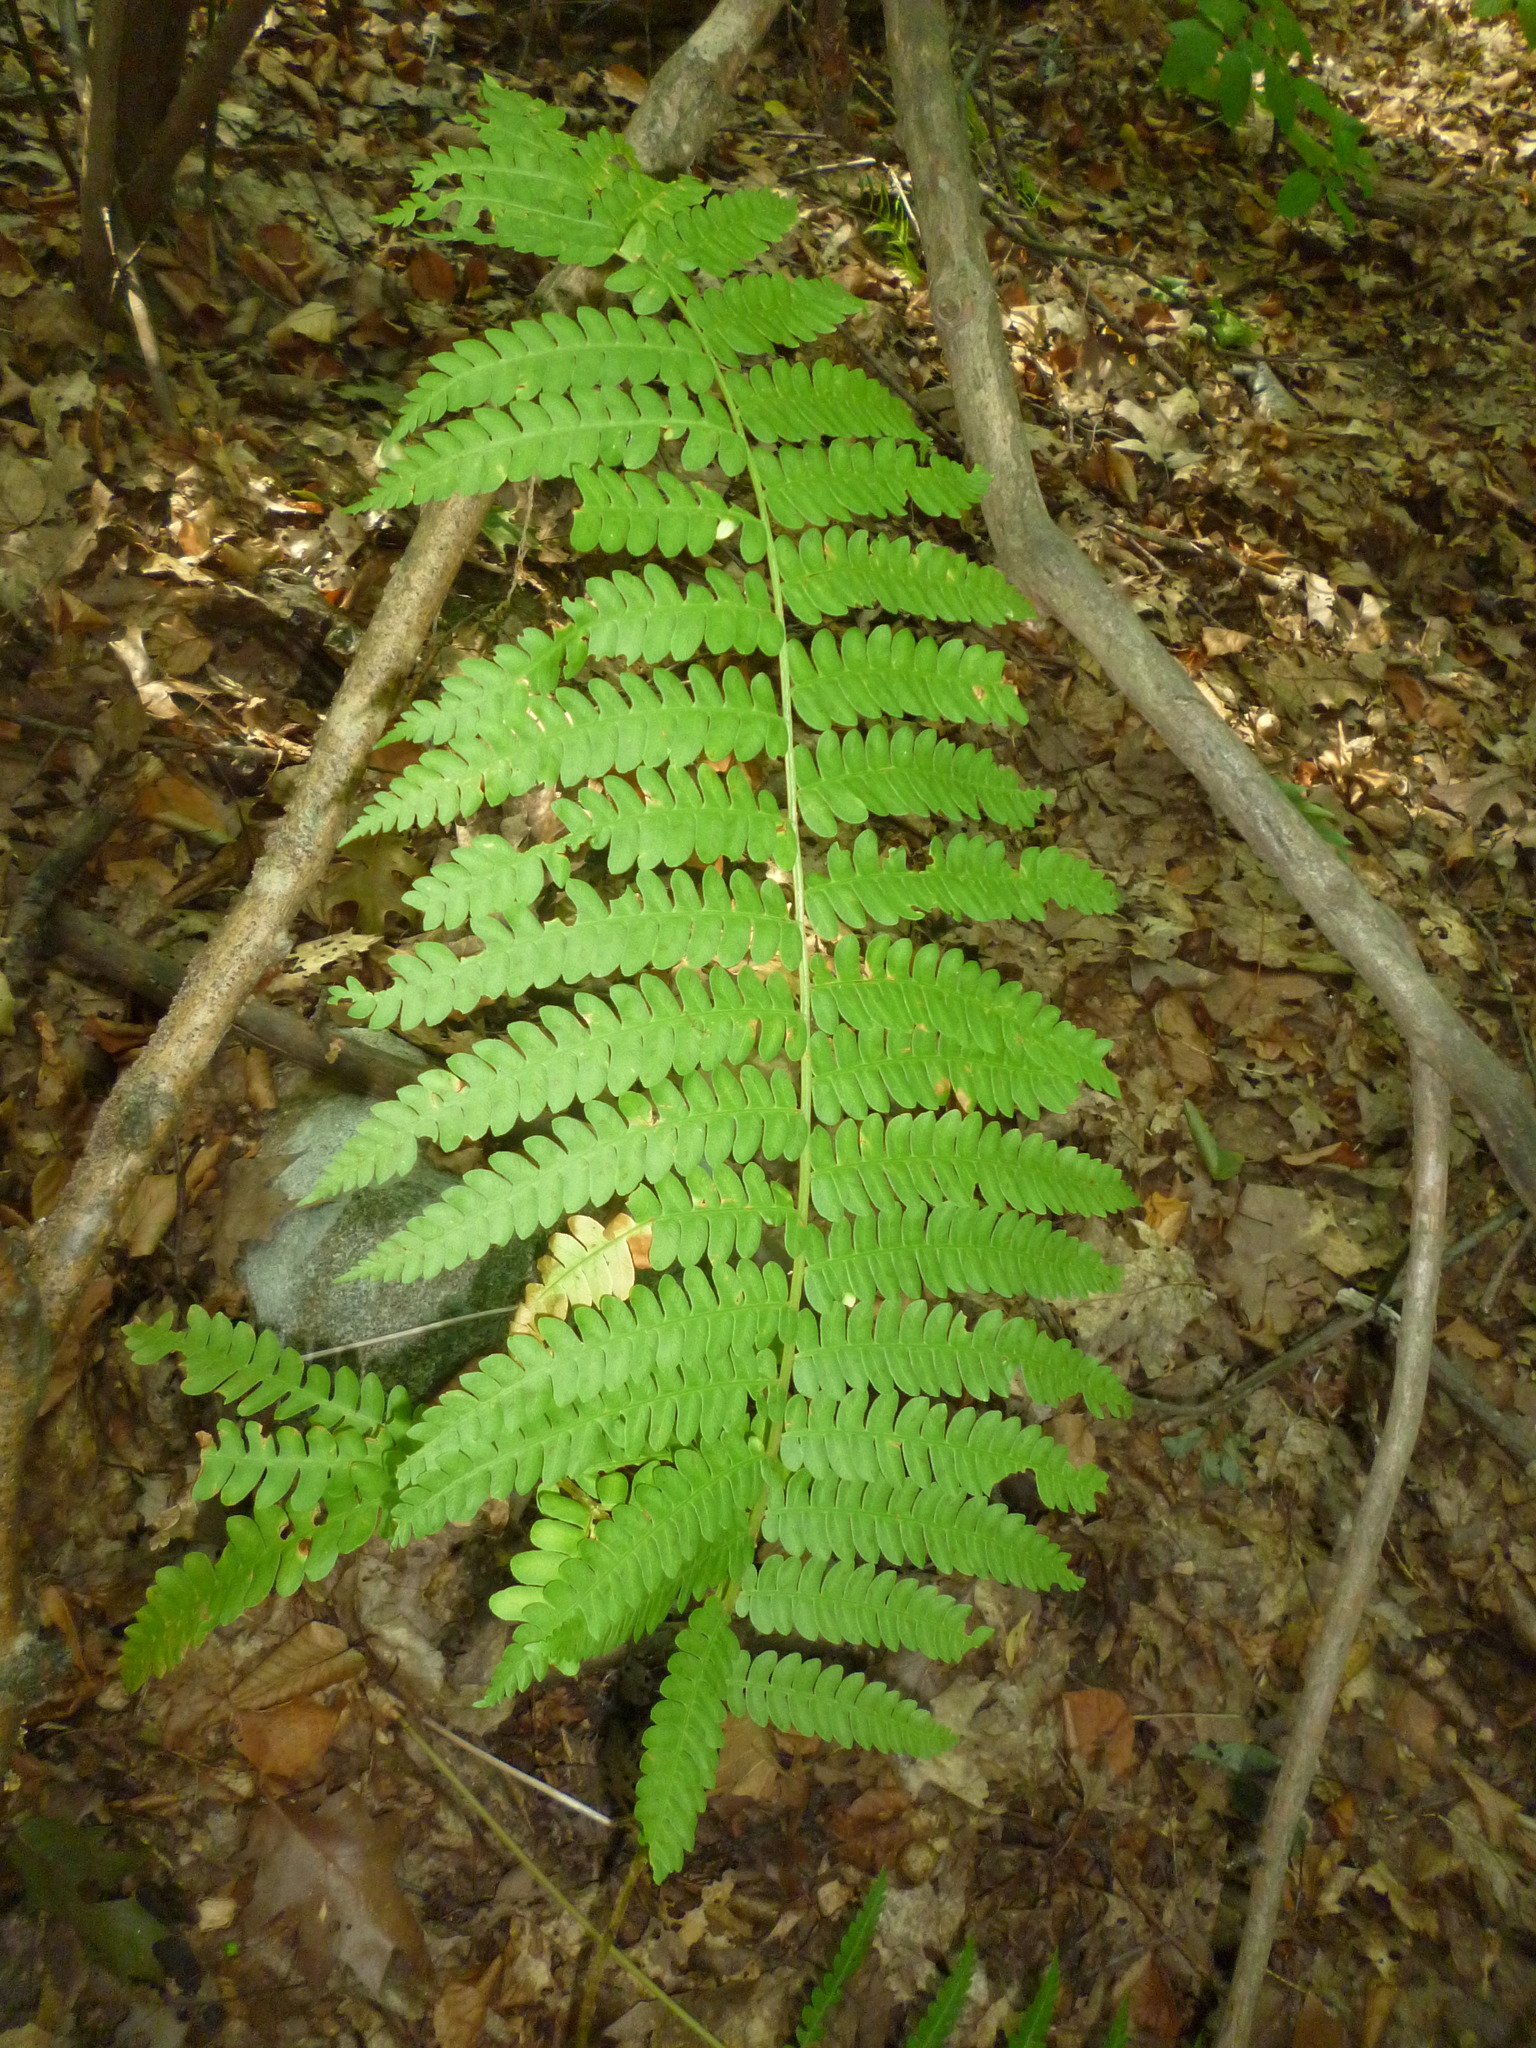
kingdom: Plantae
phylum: Tracheophyta
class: Polypodiopsida
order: Osmundales
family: Osmundaceae
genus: Osmundastrum
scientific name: Osmundastrum cinnamomeum
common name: Cinnamon fern
